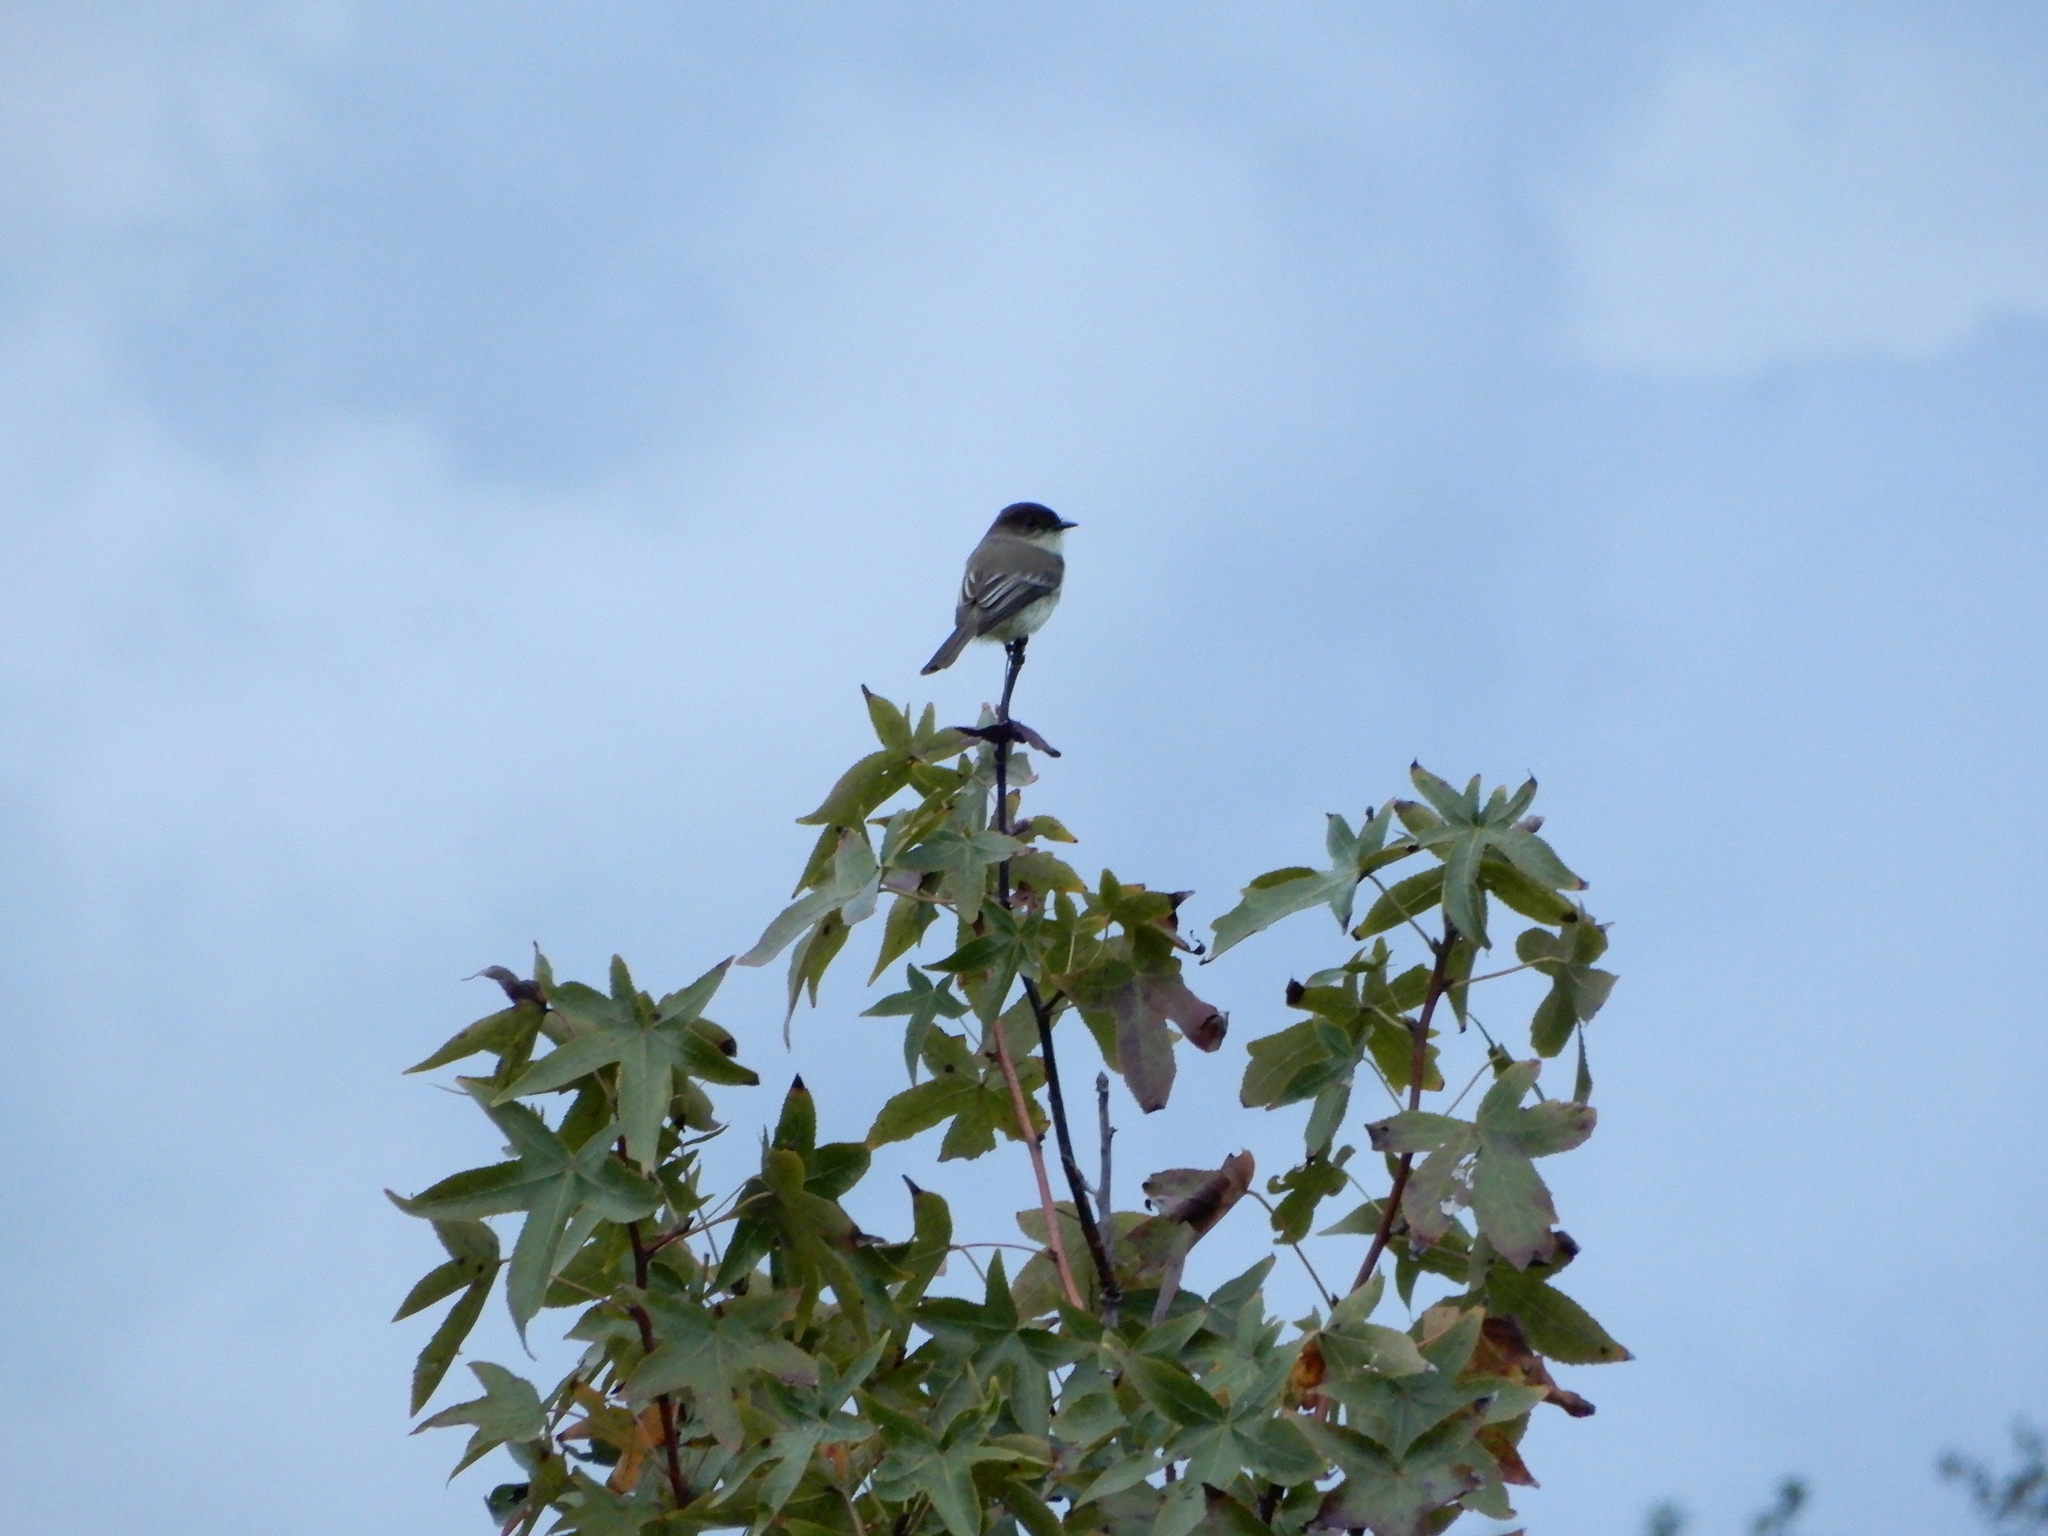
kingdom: Animalia
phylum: Chordata
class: Aves
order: Passeriformes
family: Tyrannidae
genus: Sayornis
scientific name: Sayornis phoebe
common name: Eastern phoebe
